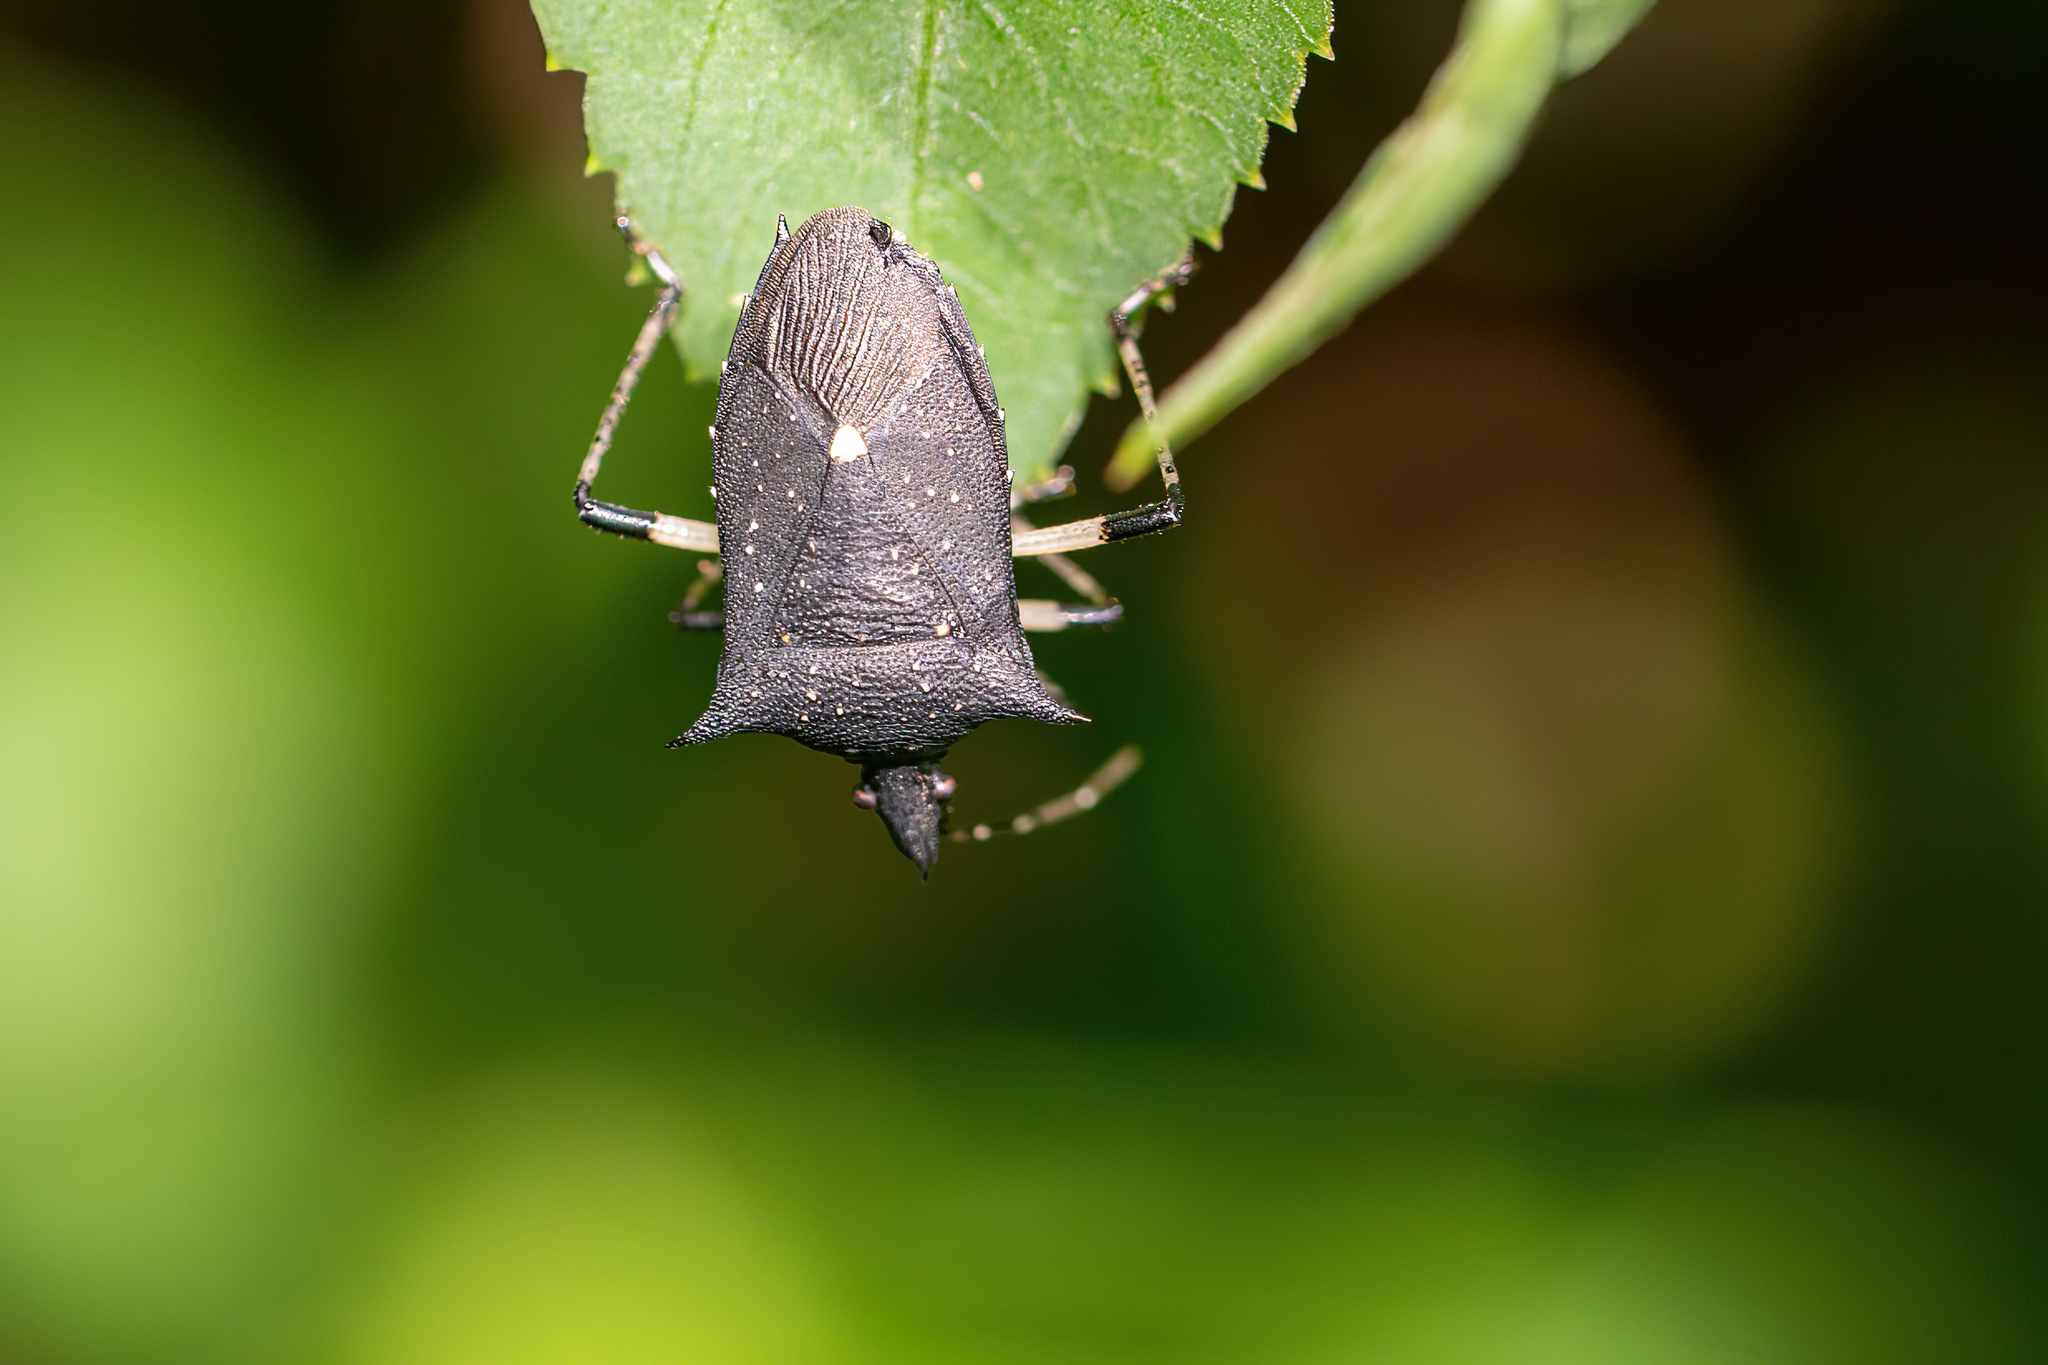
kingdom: Animalia
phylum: Arthropoda
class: Insecta
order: Hemiptera
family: Pentatomidae
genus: Proxys
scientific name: Proxys punctulatus
